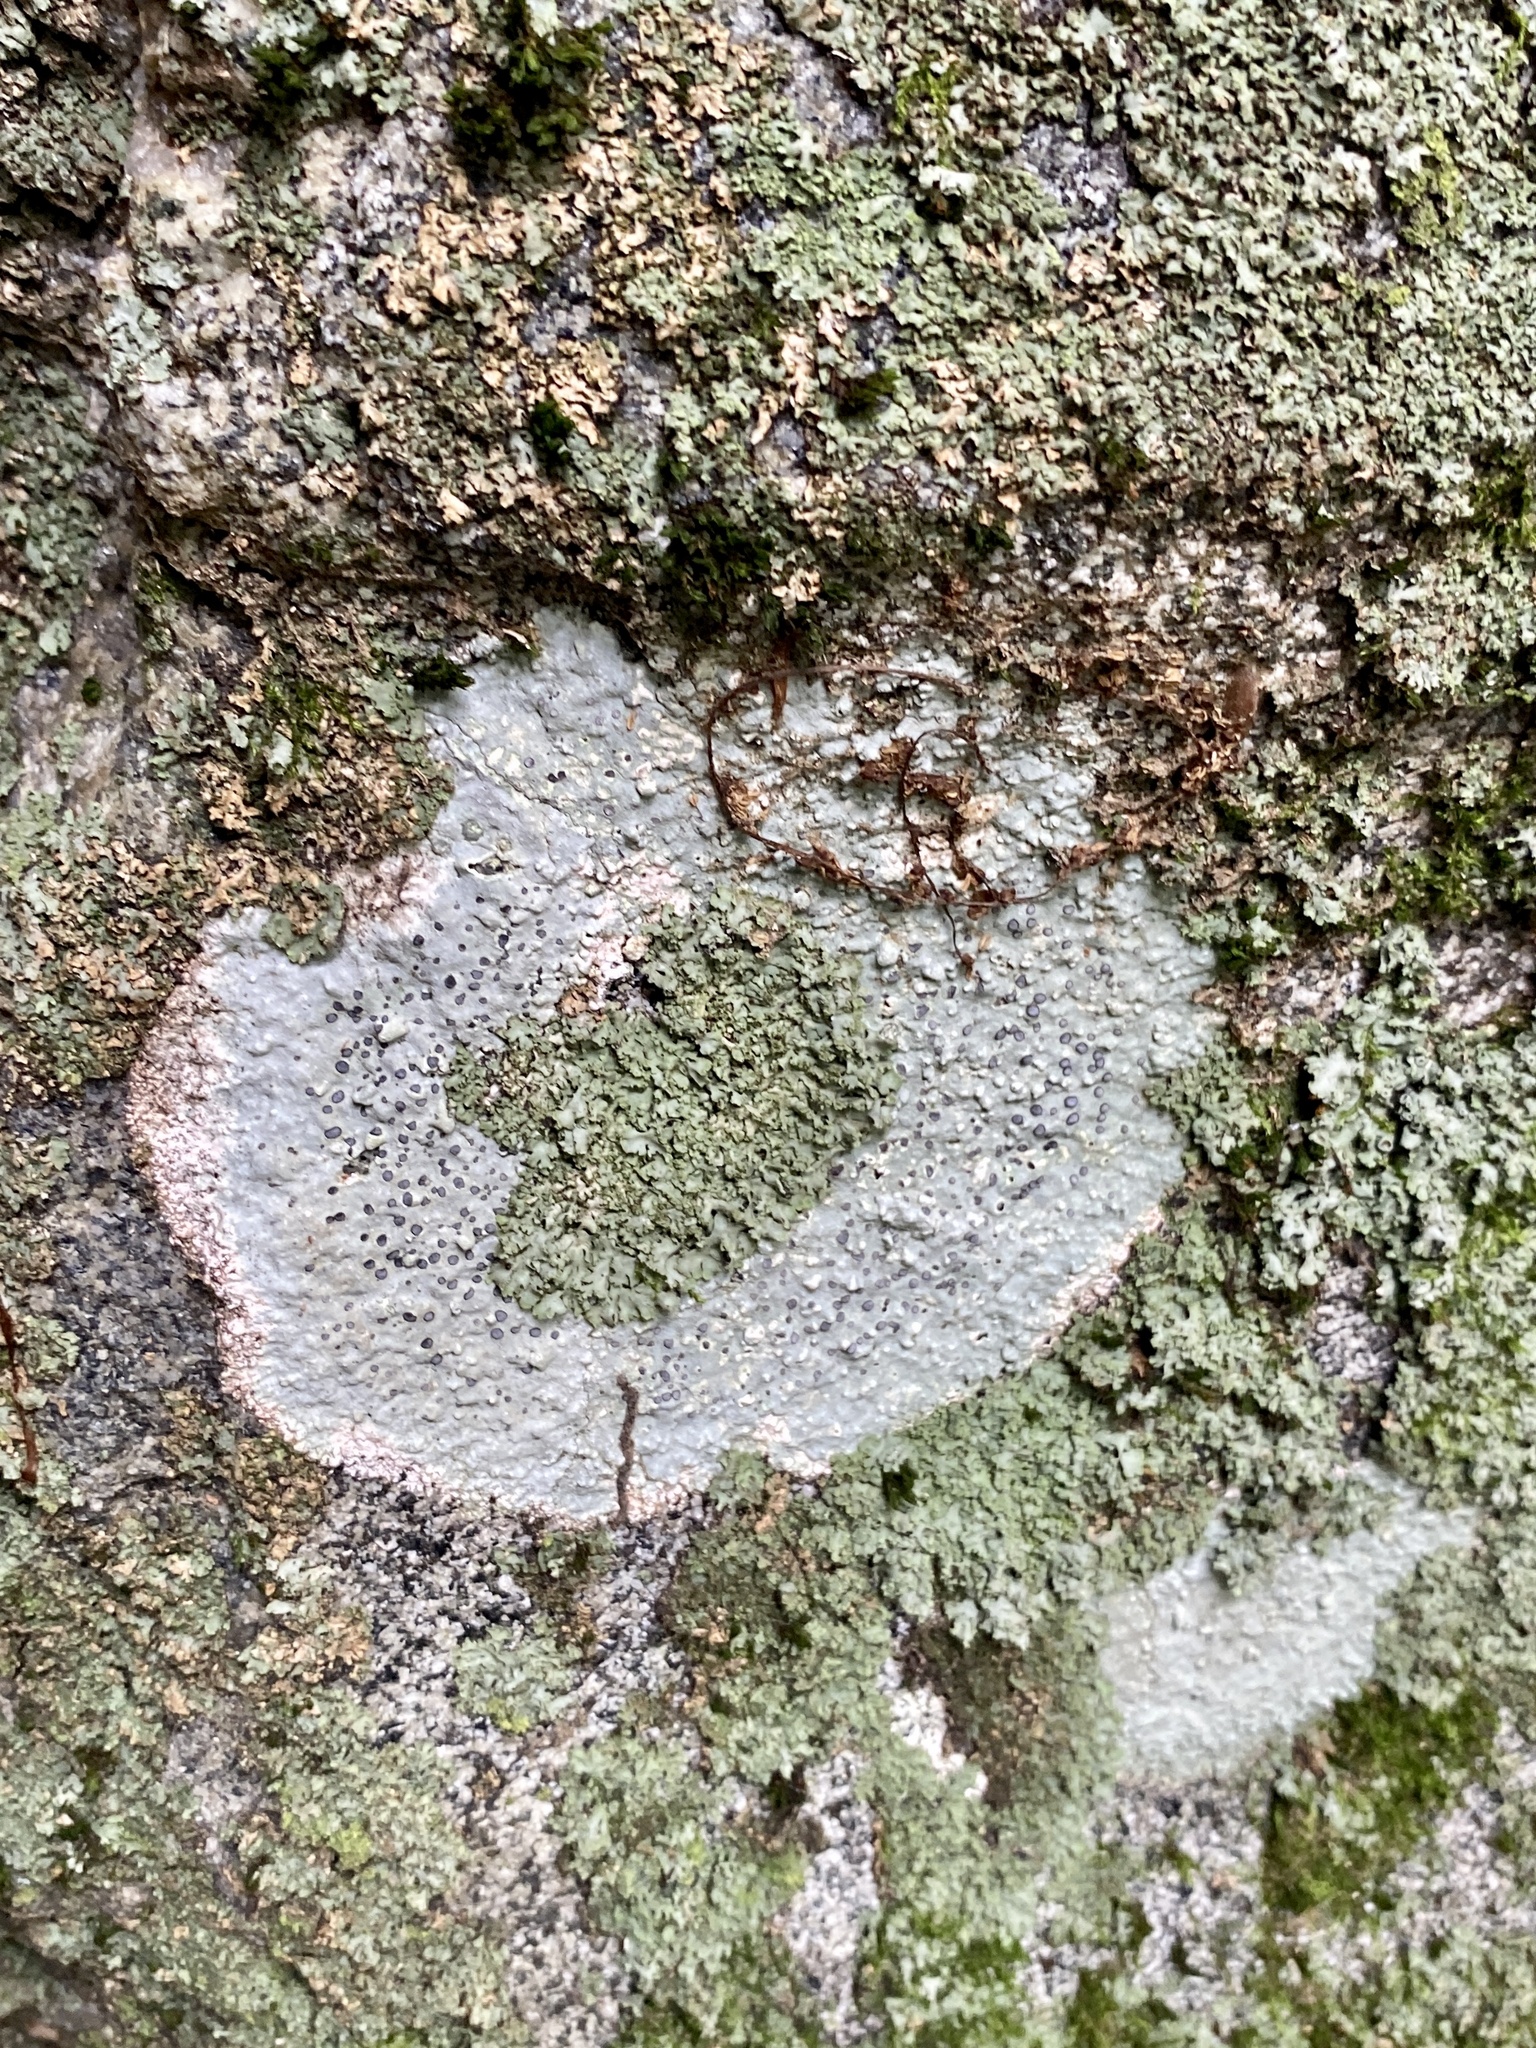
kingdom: Fungi
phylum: Ascomycota
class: Lecanoromycetes
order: Lecideales
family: Lecideaceae
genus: Porpidia
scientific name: Porpidia albocaerulescens
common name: Smokey-eyed boulder lichen
